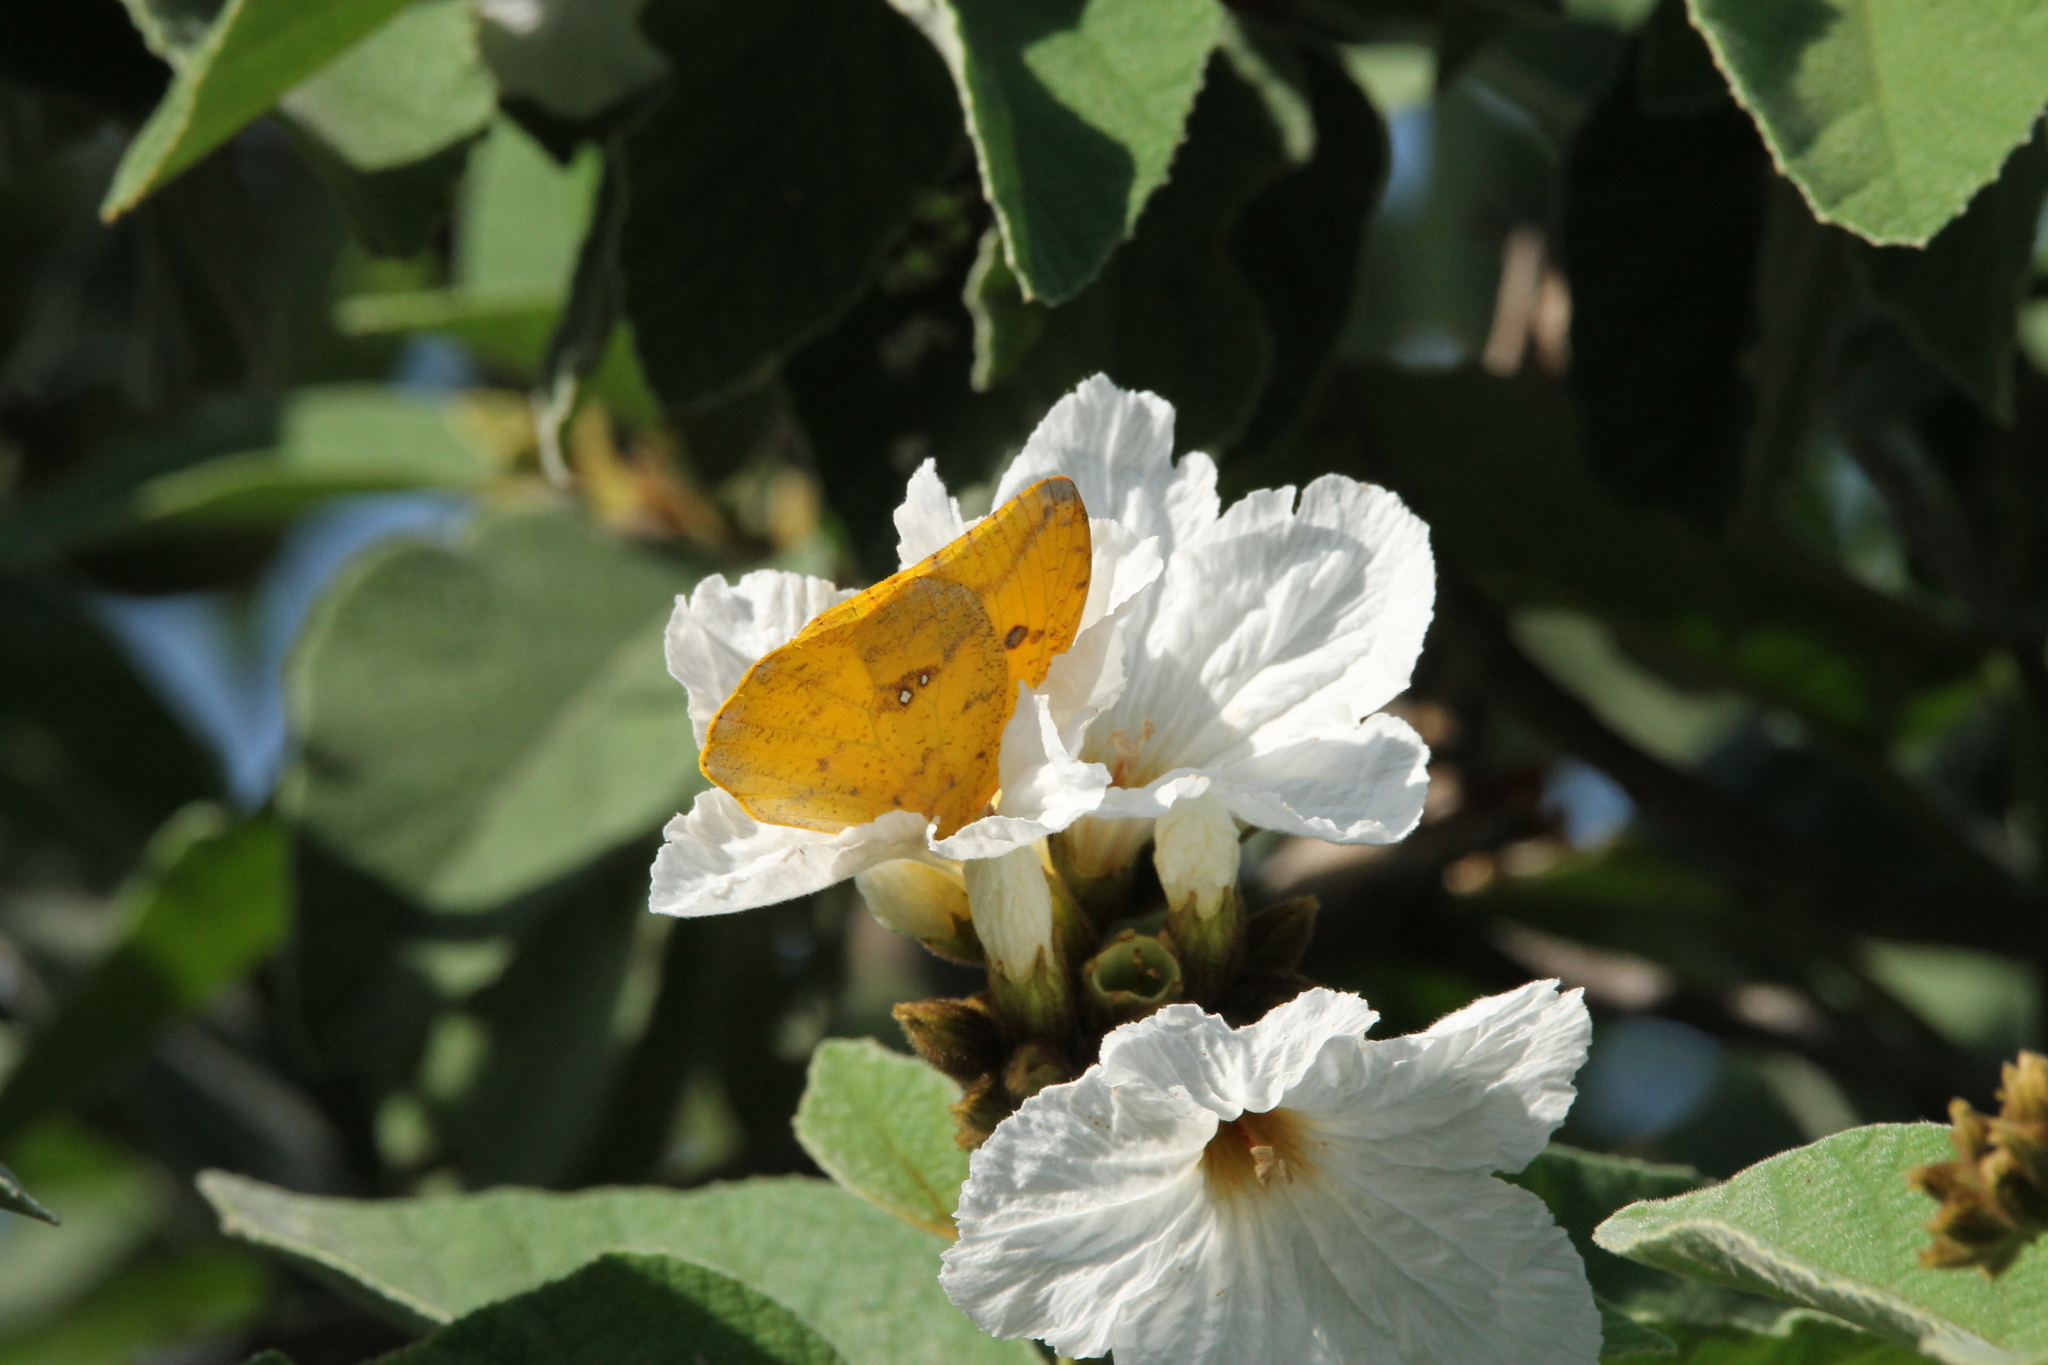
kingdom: Animalia
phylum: Arthropoda
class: Insecta
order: Lepidoptera
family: Pieridae
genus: Phoebis
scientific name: Phoebis agarithe
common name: Large orange sulphur
